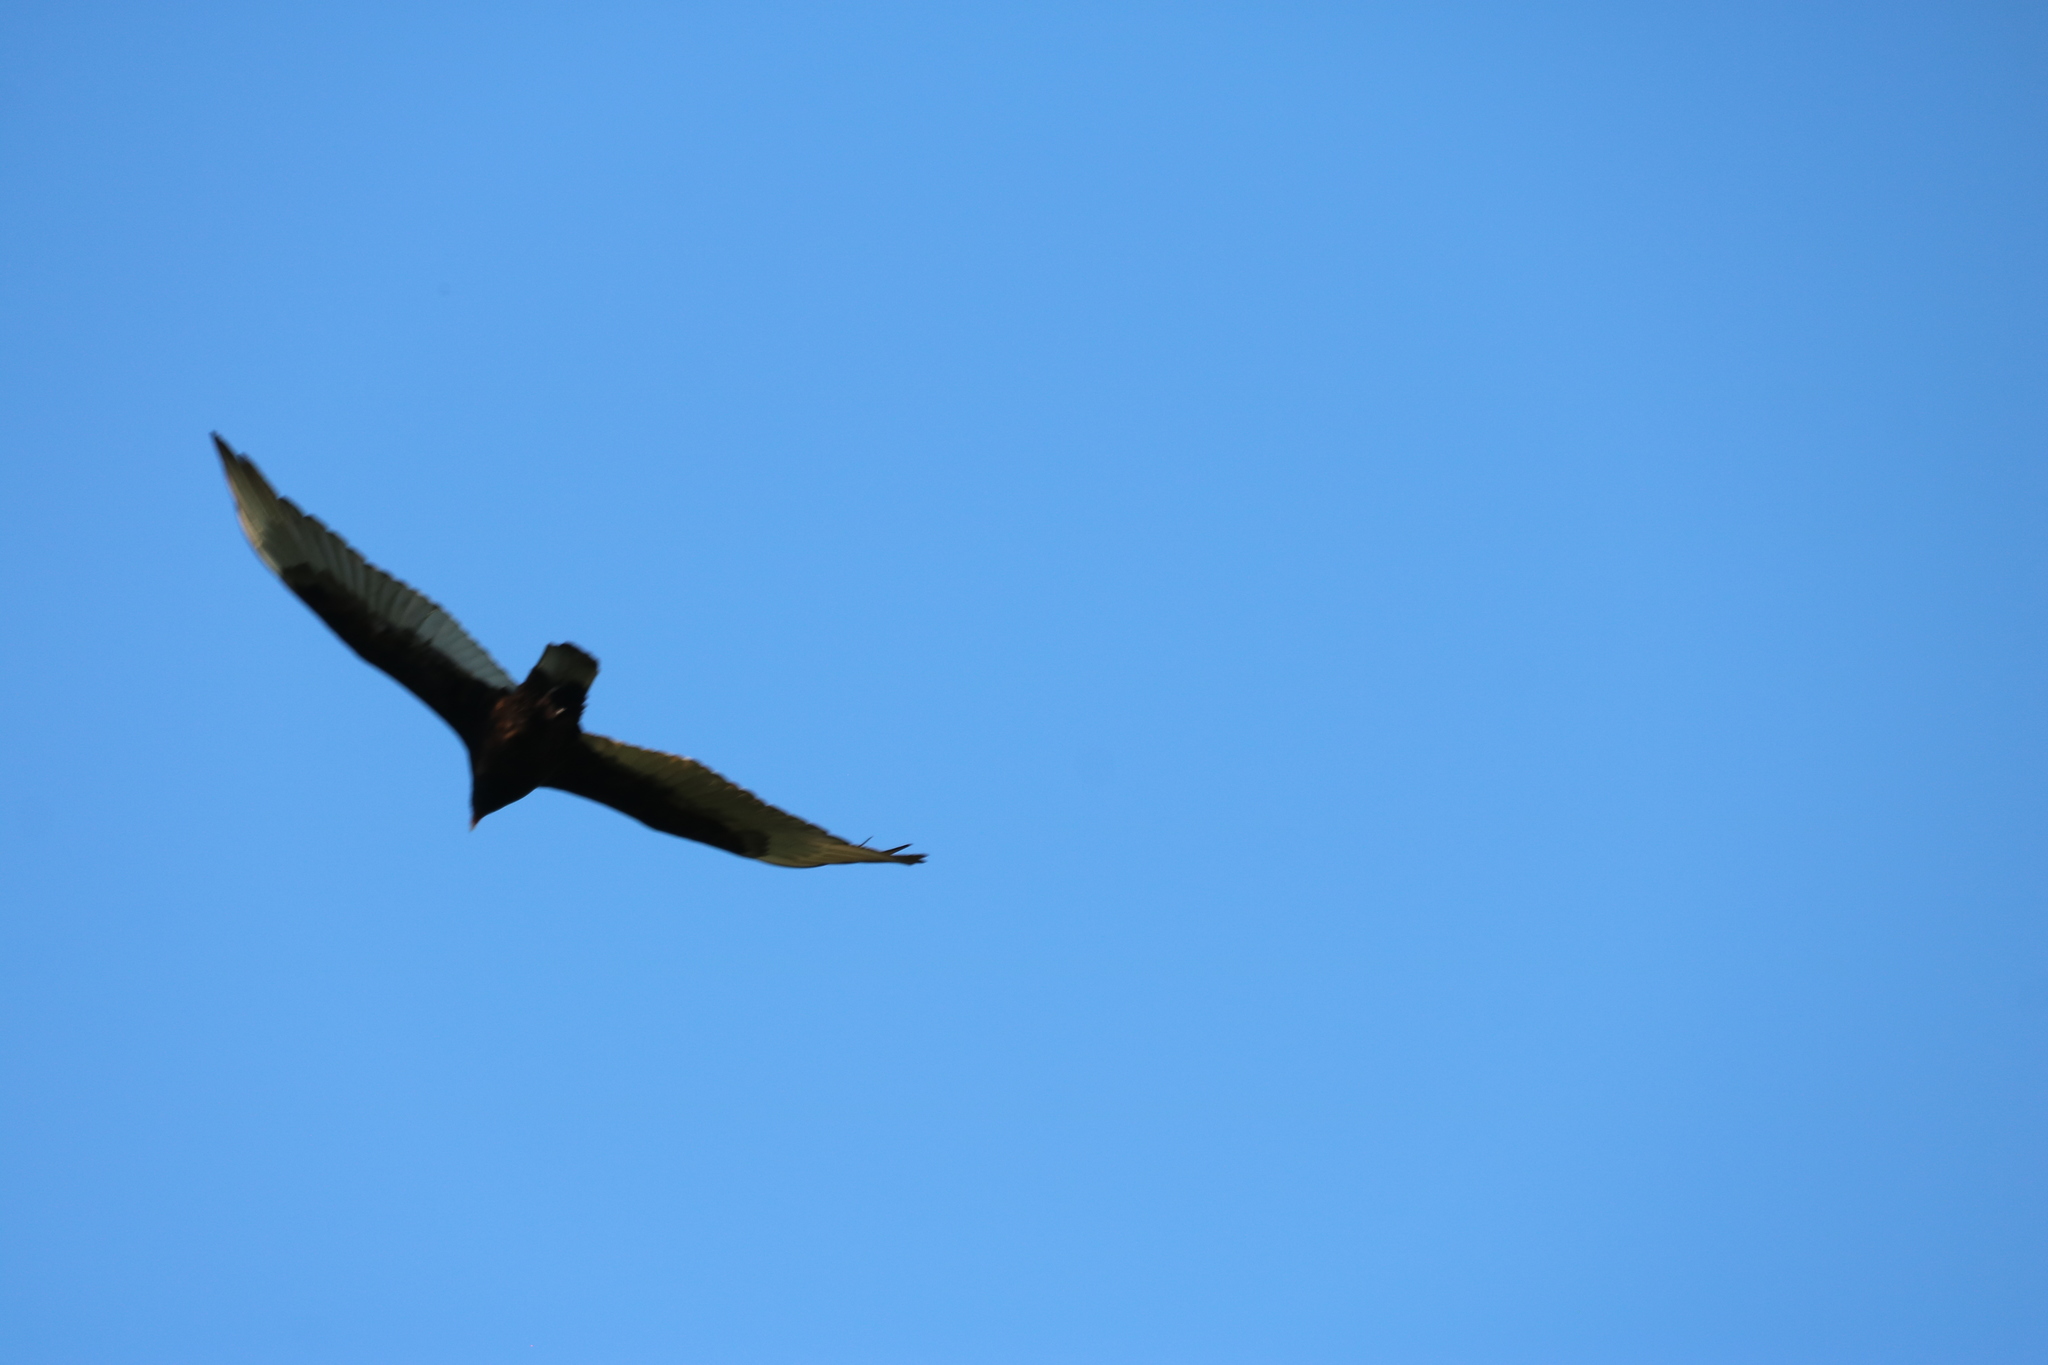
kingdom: Animalia
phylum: Chordata
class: Aves
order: Accipitriformes
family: Cathartidae
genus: Cathartes
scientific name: Cathartes aura
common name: Turkey vulture
